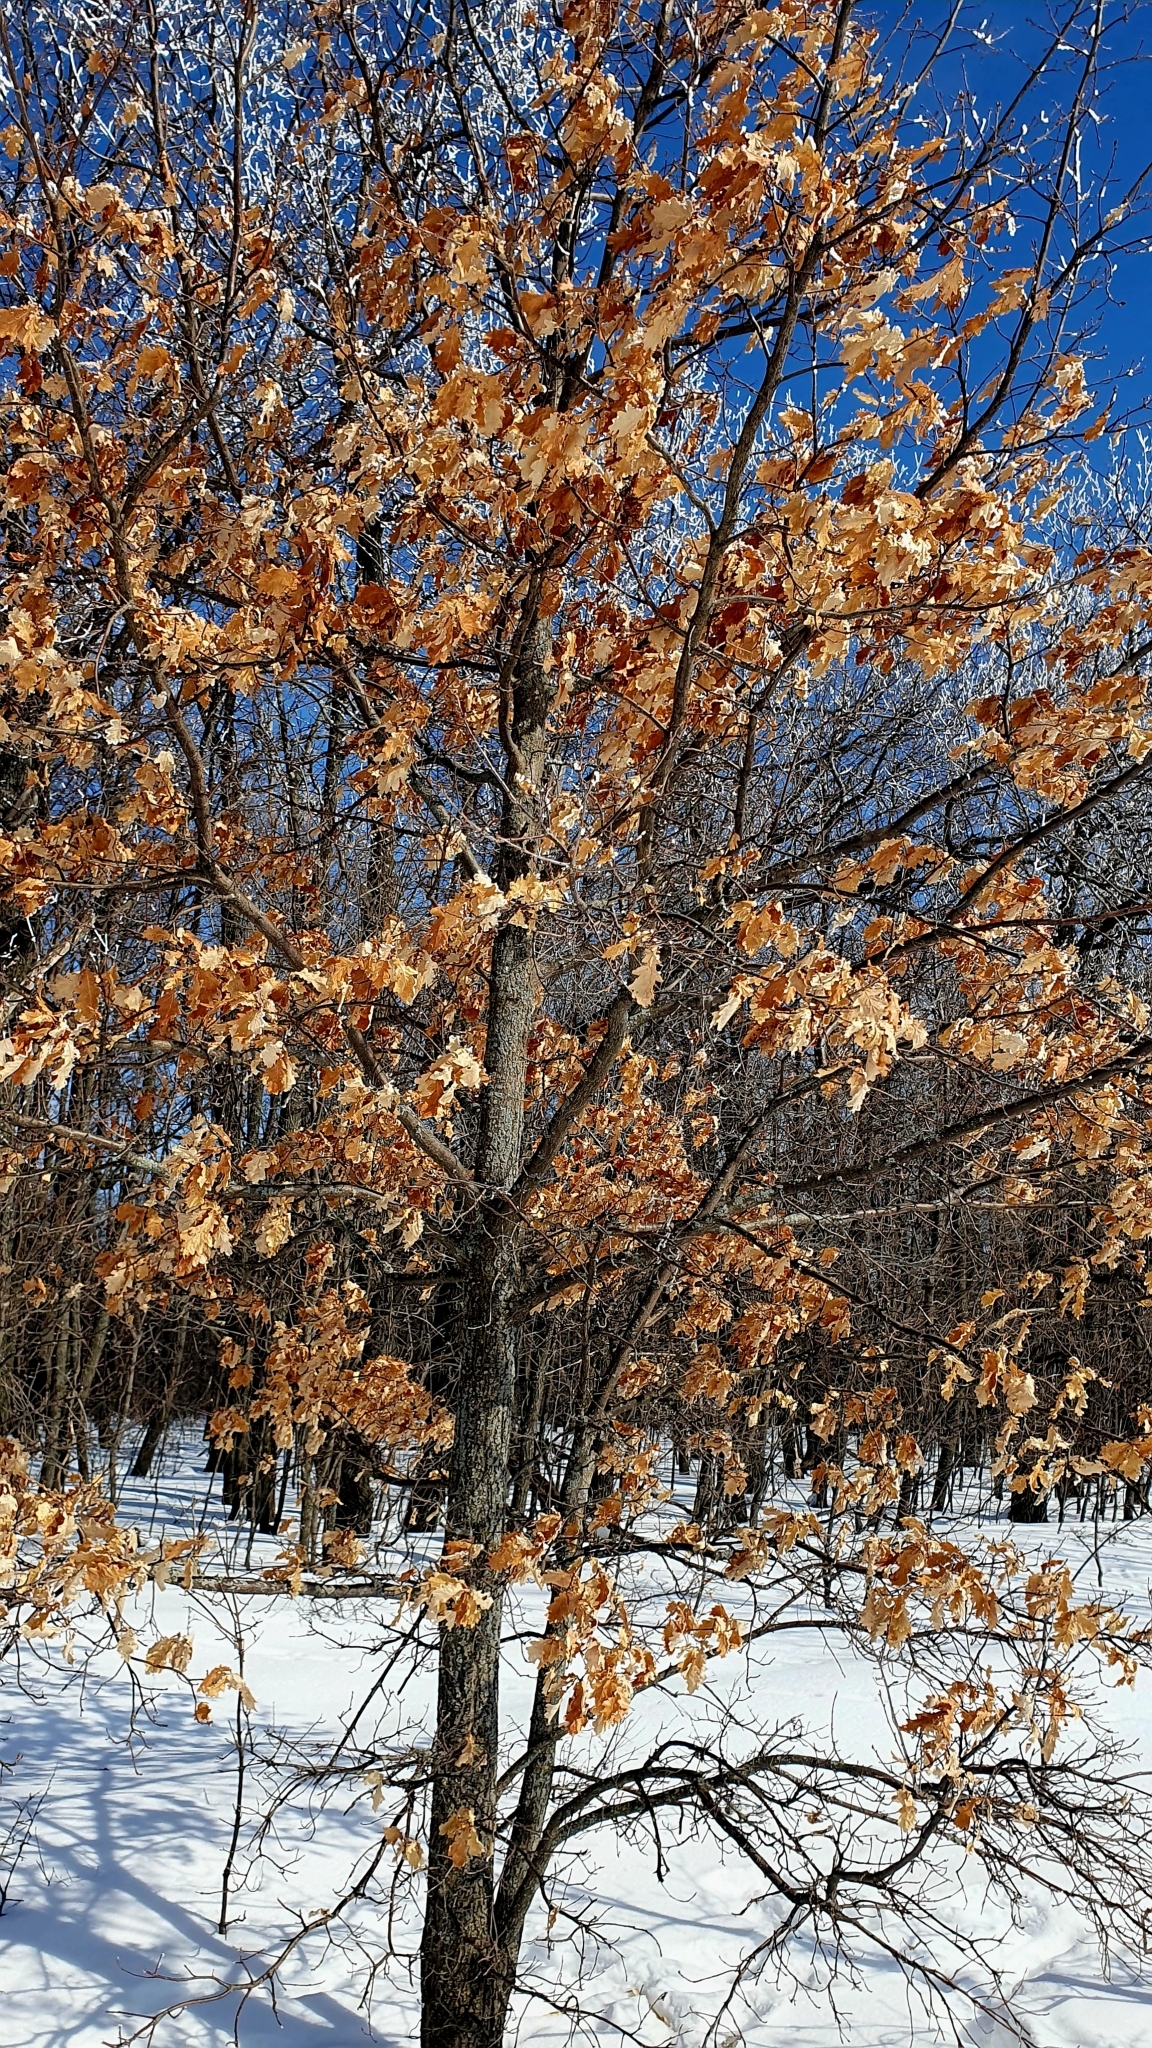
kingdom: Plantae
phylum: Tracheophyta
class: Magnoliopsida
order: Fagales
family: Fagaceae
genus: Quercus
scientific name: Quercus robur
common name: Pedunculate oak
